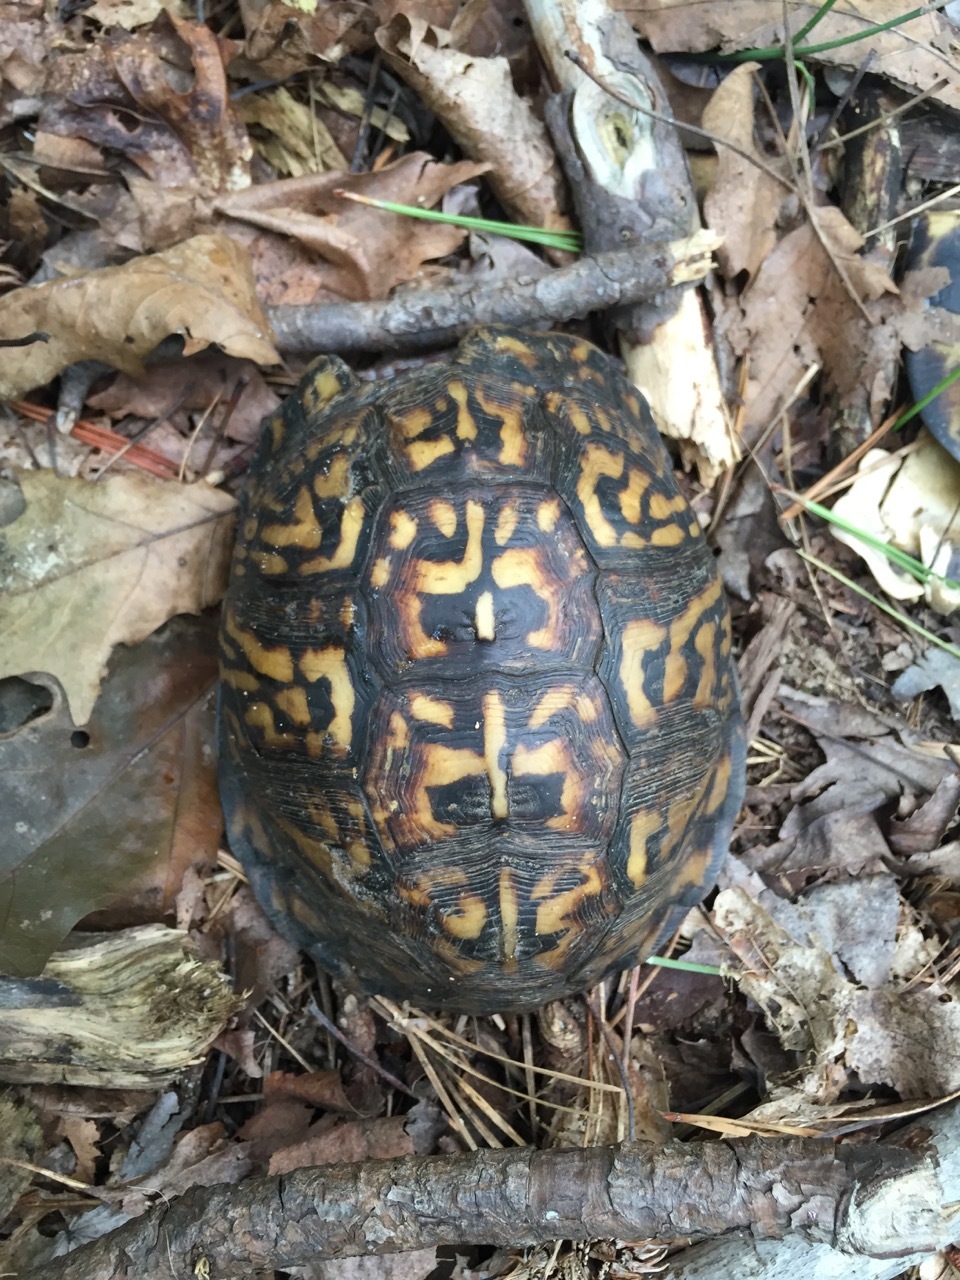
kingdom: Animalia
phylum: Chordata
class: Testudines
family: Emydidae
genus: Terrapene
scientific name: Terrapene carolina
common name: Common box turtle
